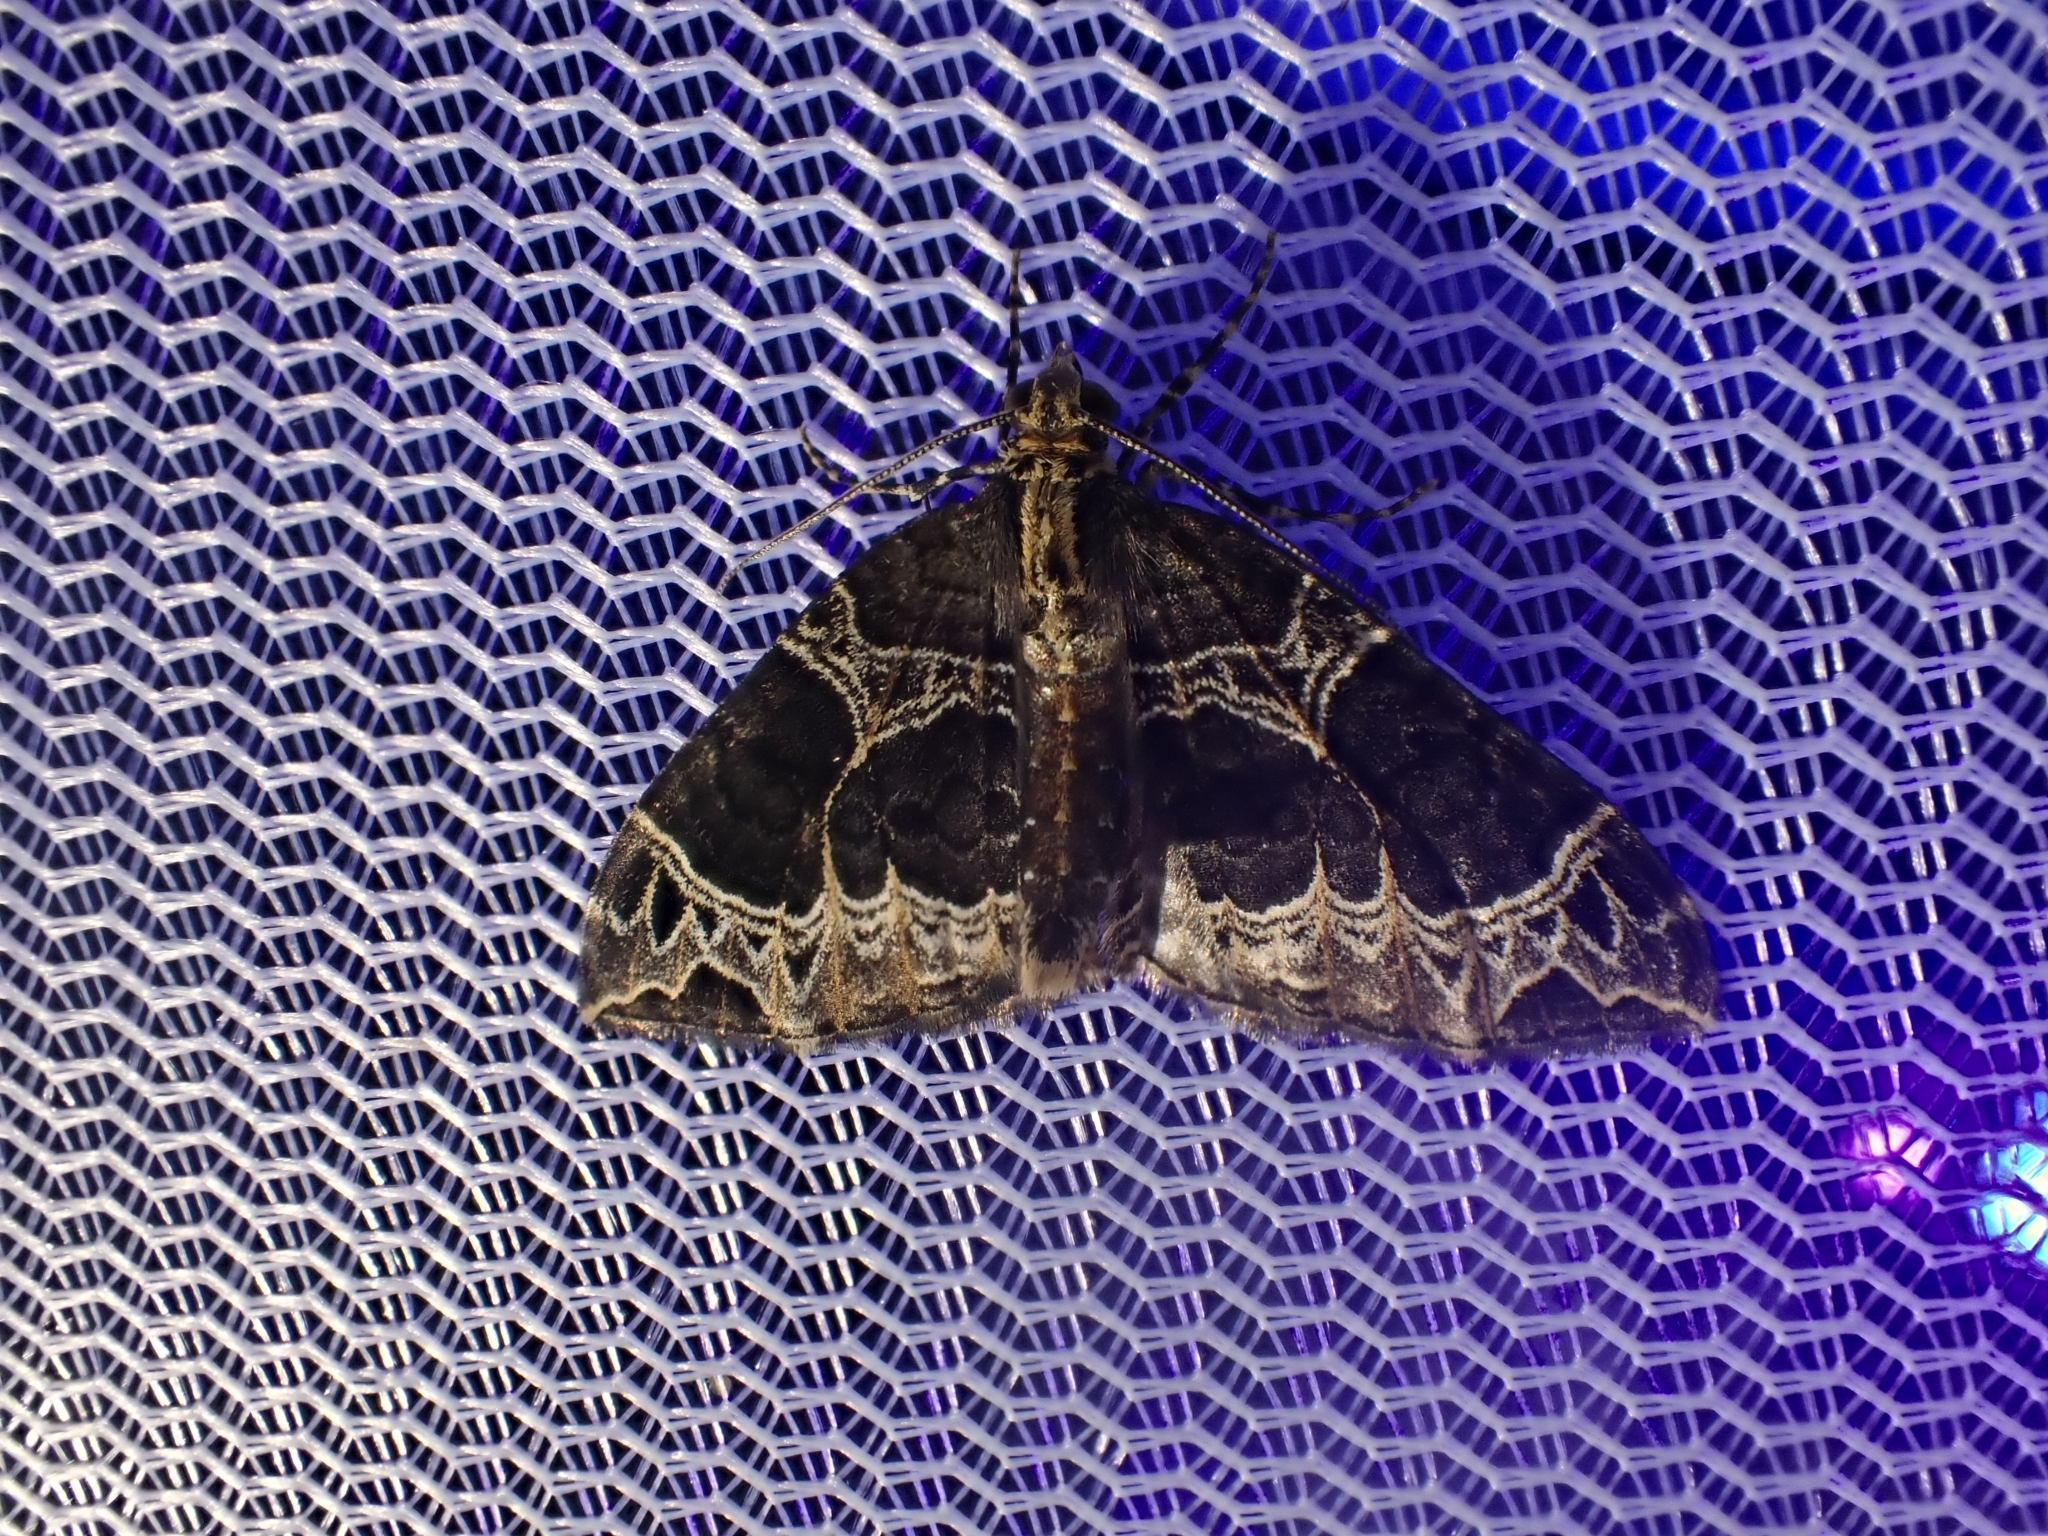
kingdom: Animalia
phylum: Arthropoda
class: Insecta
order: Lepidoptera
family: Geometridae
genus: Ecliptopera
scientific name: Ecliptopera silaceata
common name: Small phoenix
